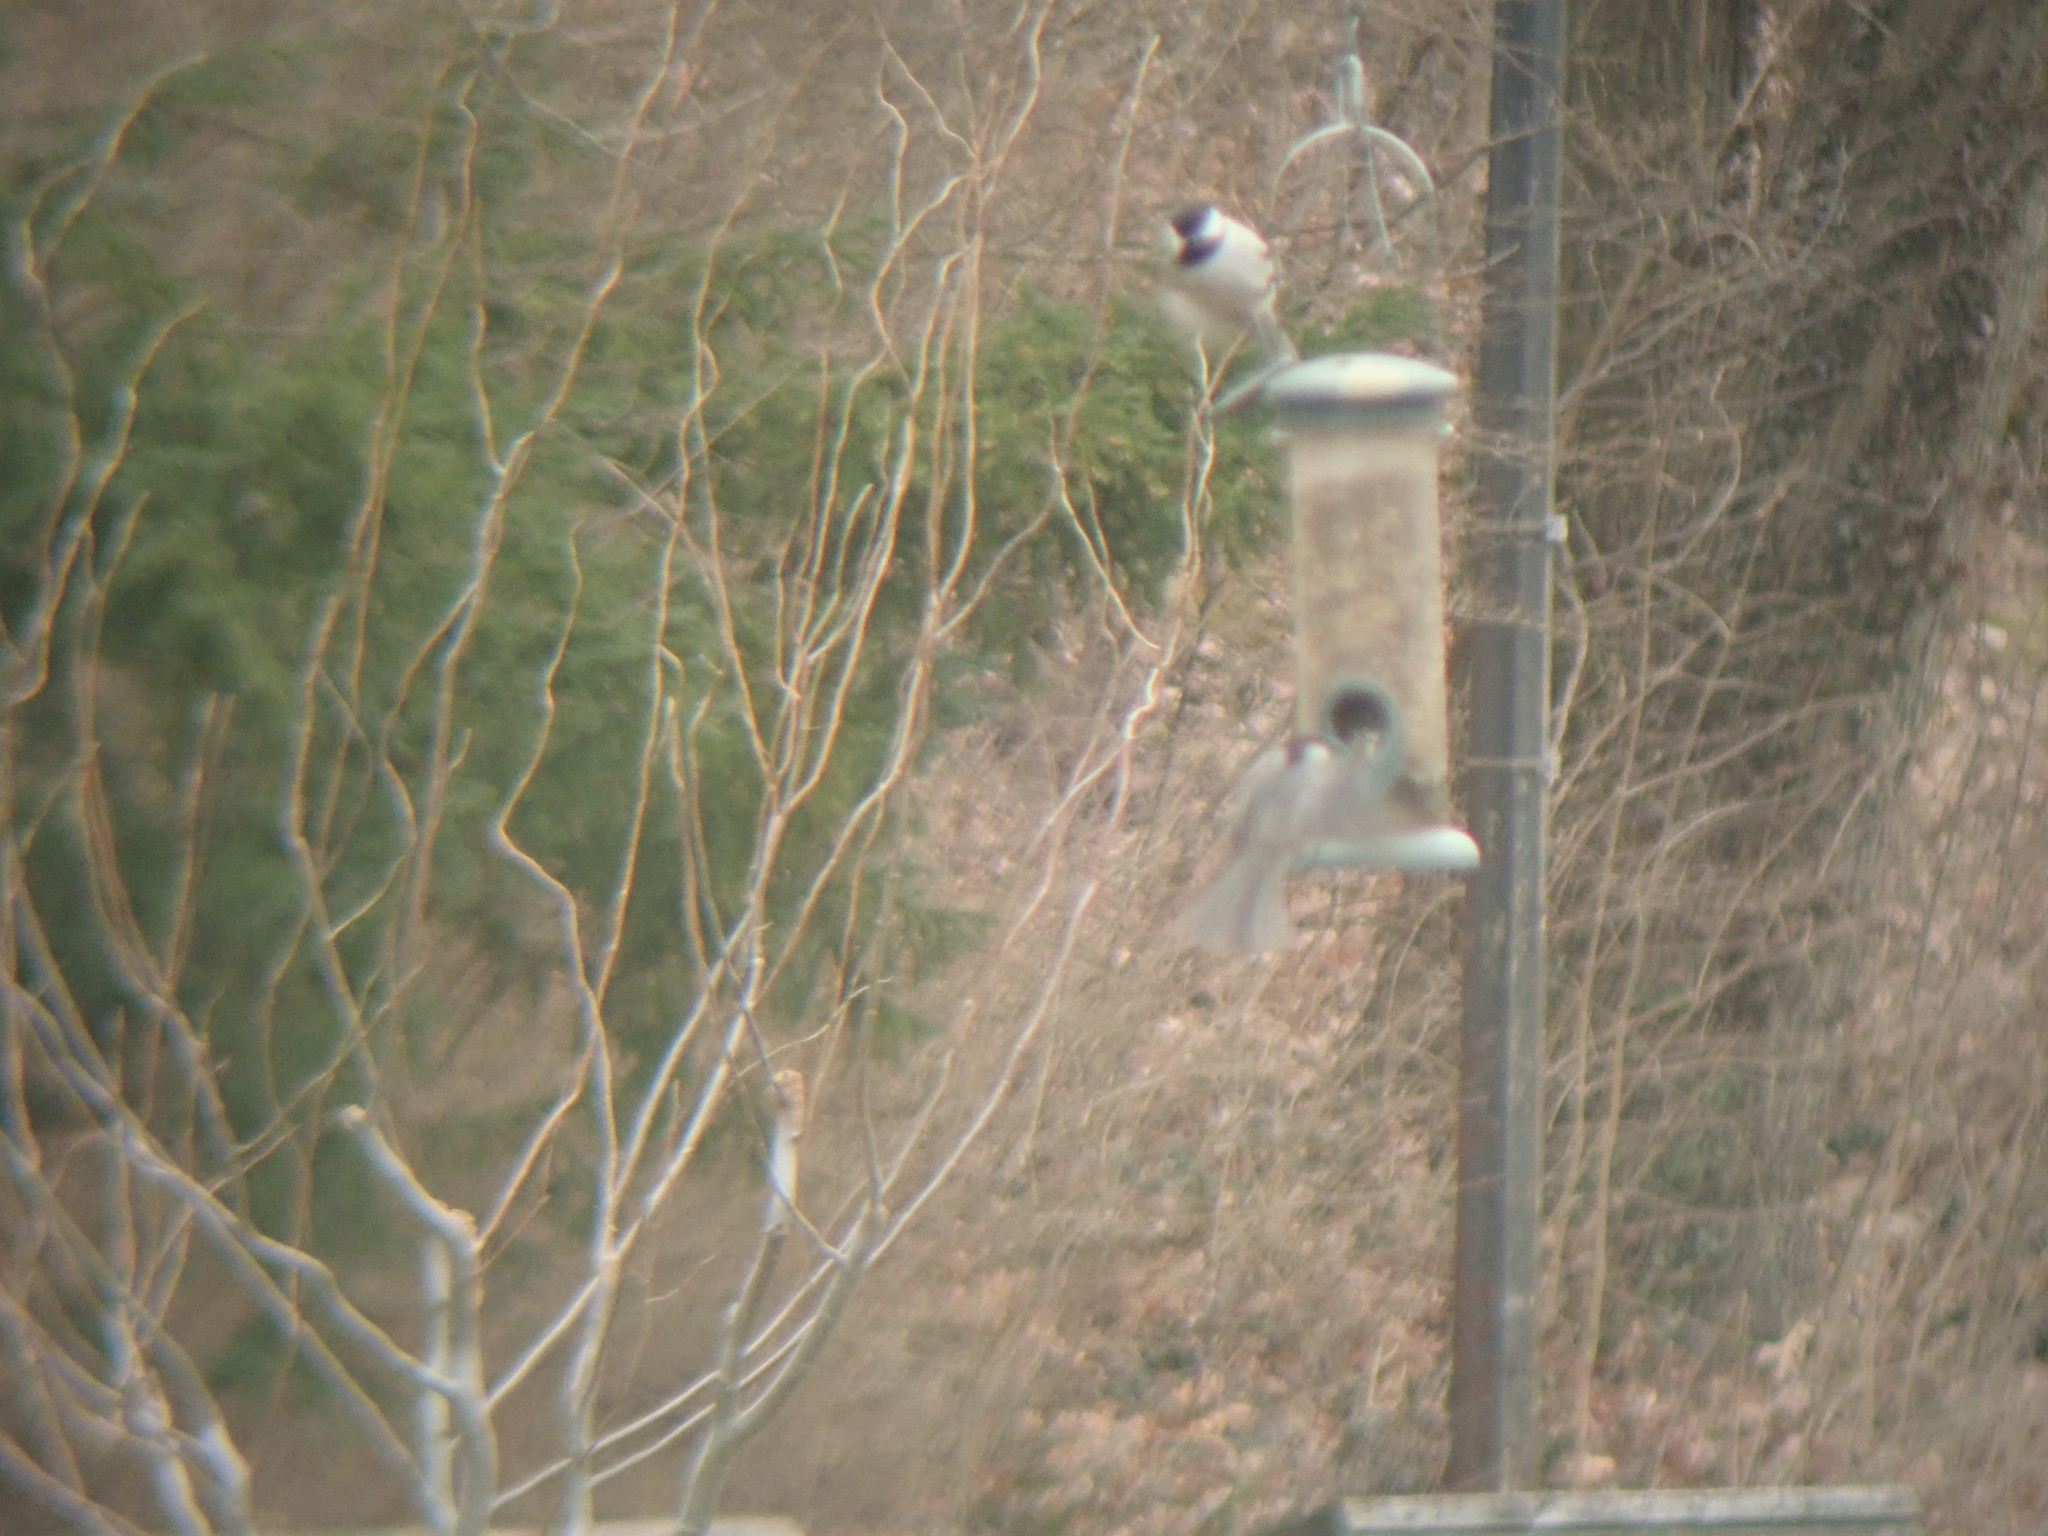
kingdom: Animalia
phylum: Chordata
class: Aves
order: Passeriformes
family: Paridae
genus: Poecile
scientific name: Poecile carolinensis
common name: Carolina chickadee
